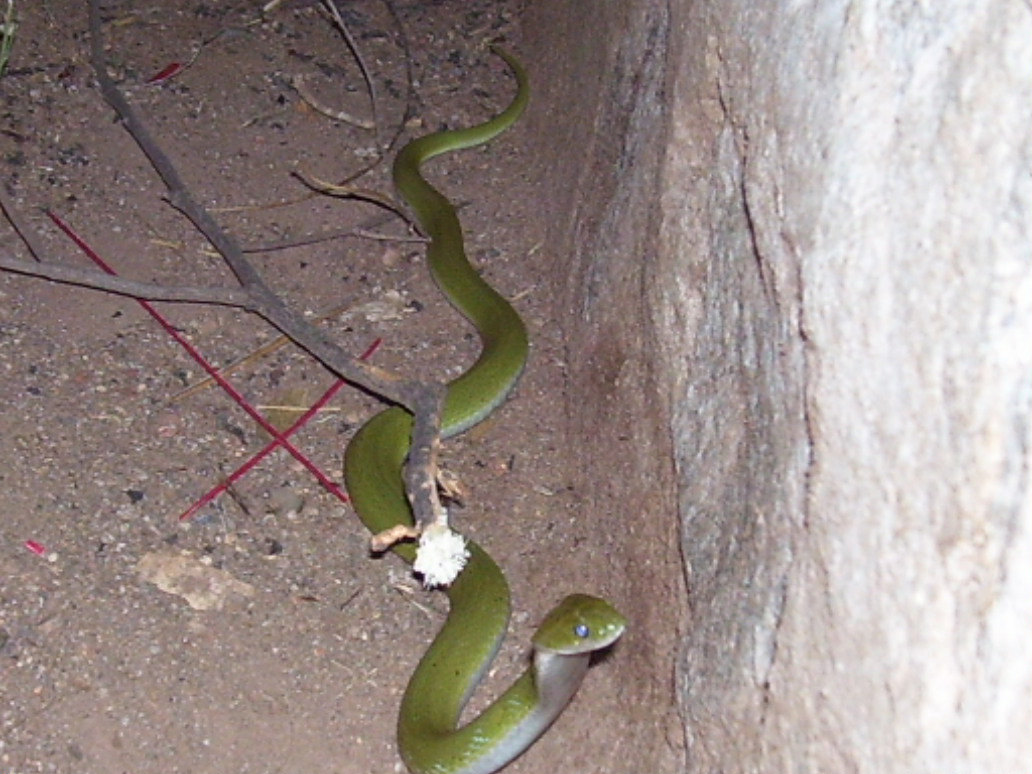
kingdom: Animalia
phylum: Chordata
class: Squamata
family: Colubridae
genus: Rhabdophis
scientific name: Rhabdophis plumbicolor
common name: Green keelback
